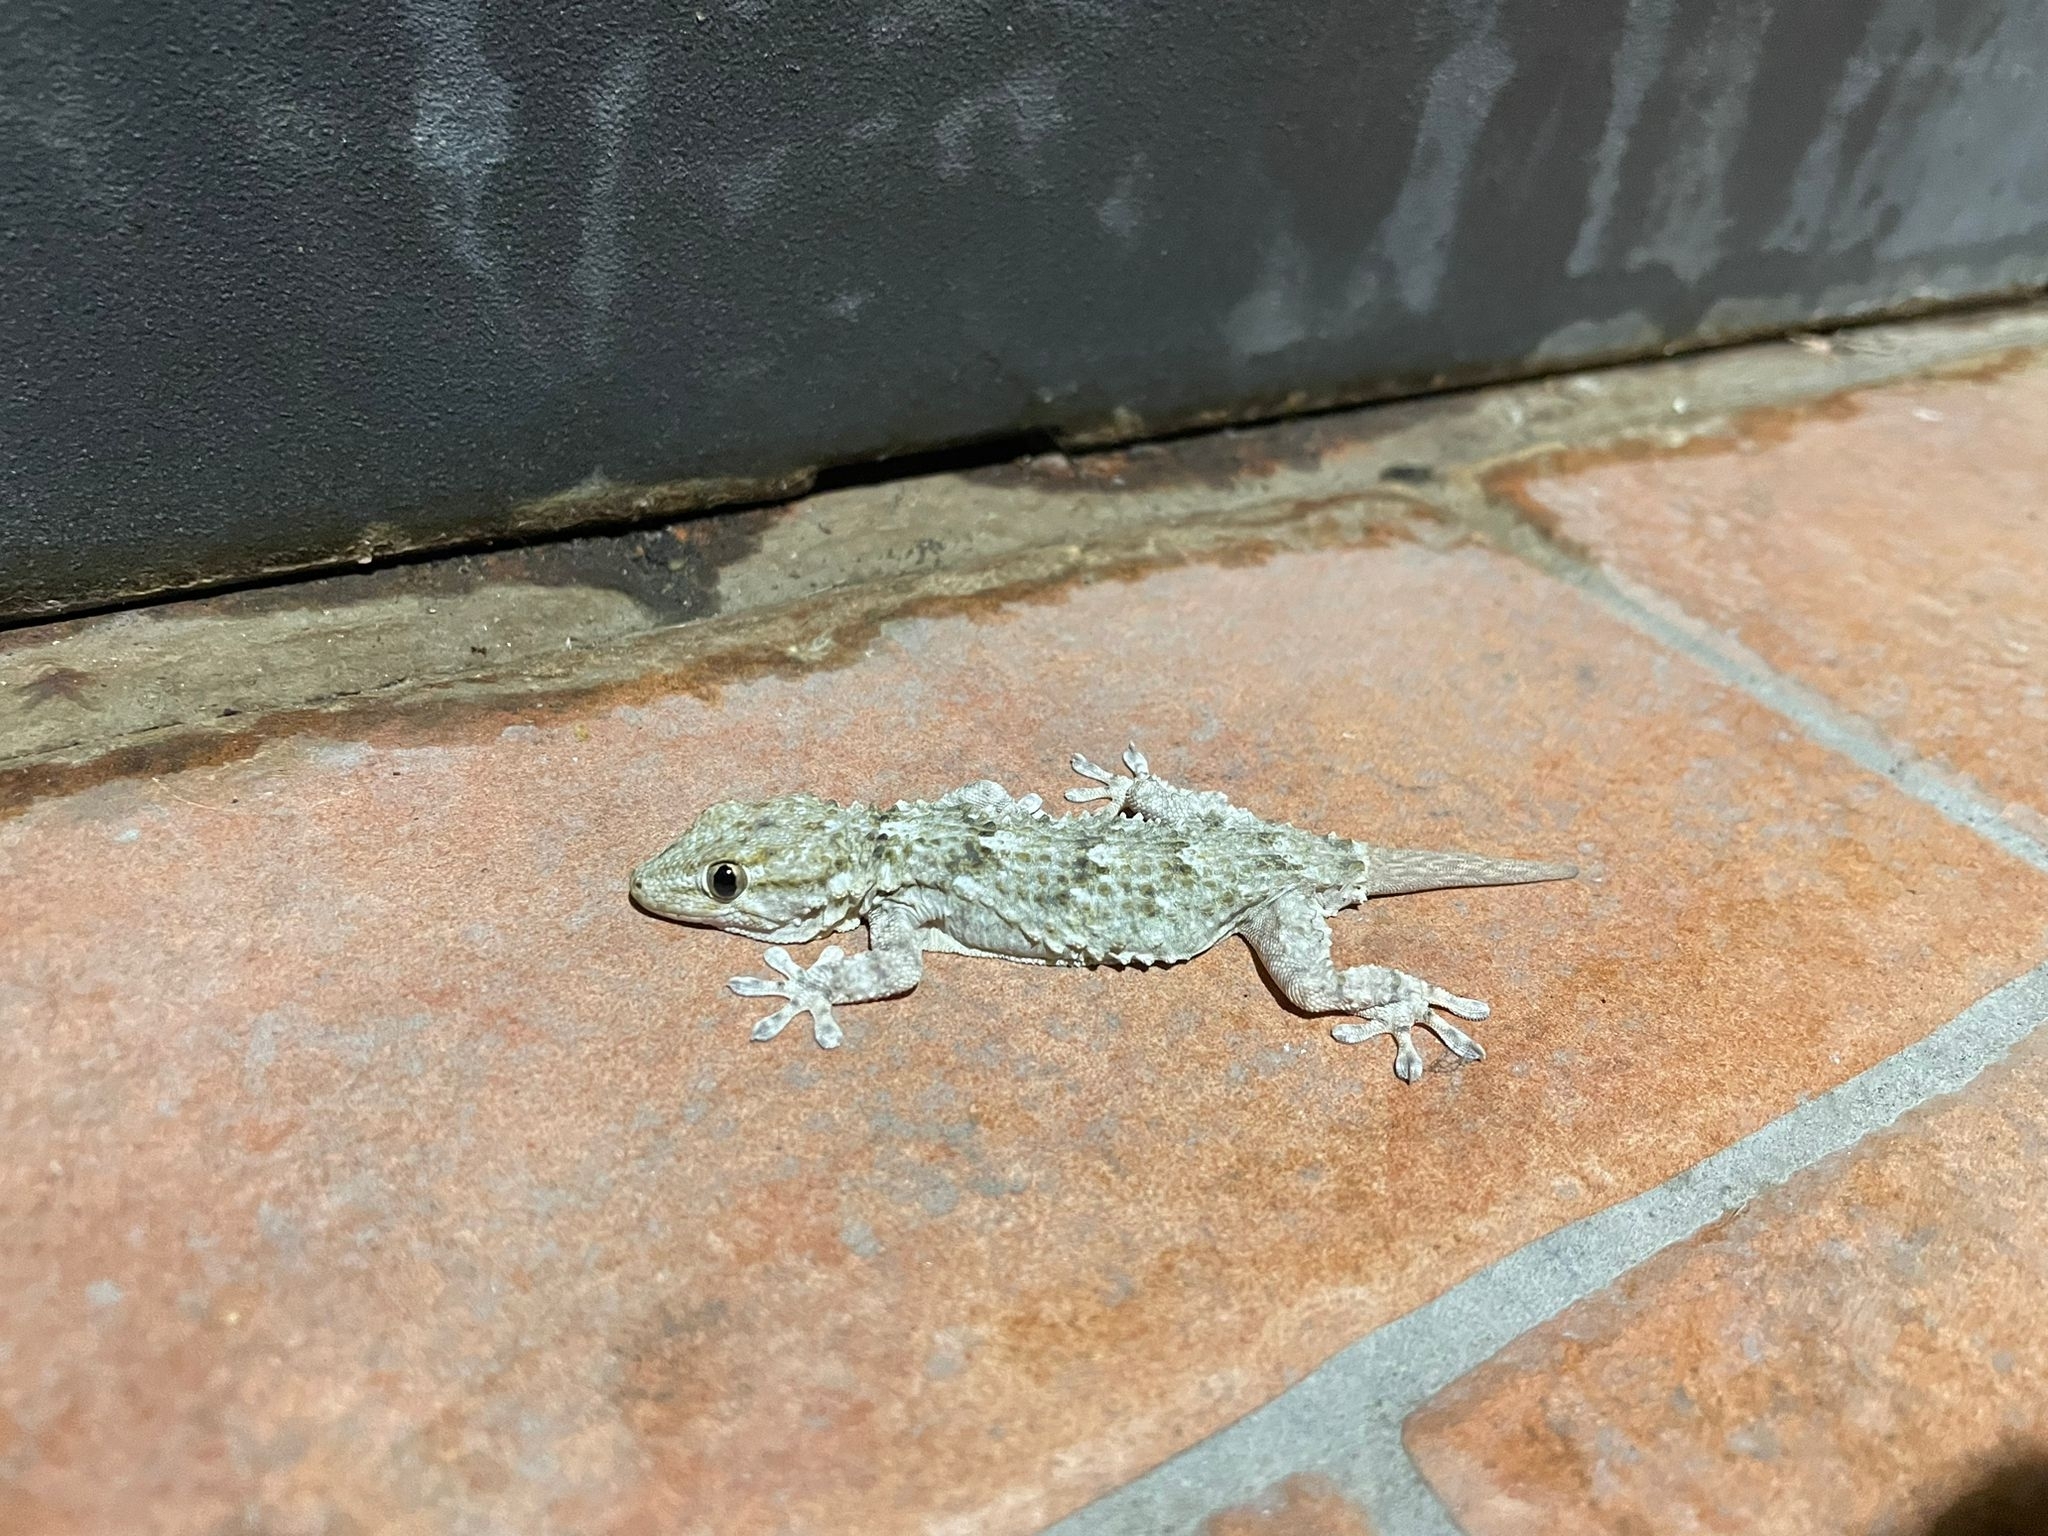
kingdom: Animalia
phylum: Chordata
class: Squamata
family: Phyllodactylidae
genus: Tarentola
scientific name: Tarentola mauritanica
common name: Moorish gecko
